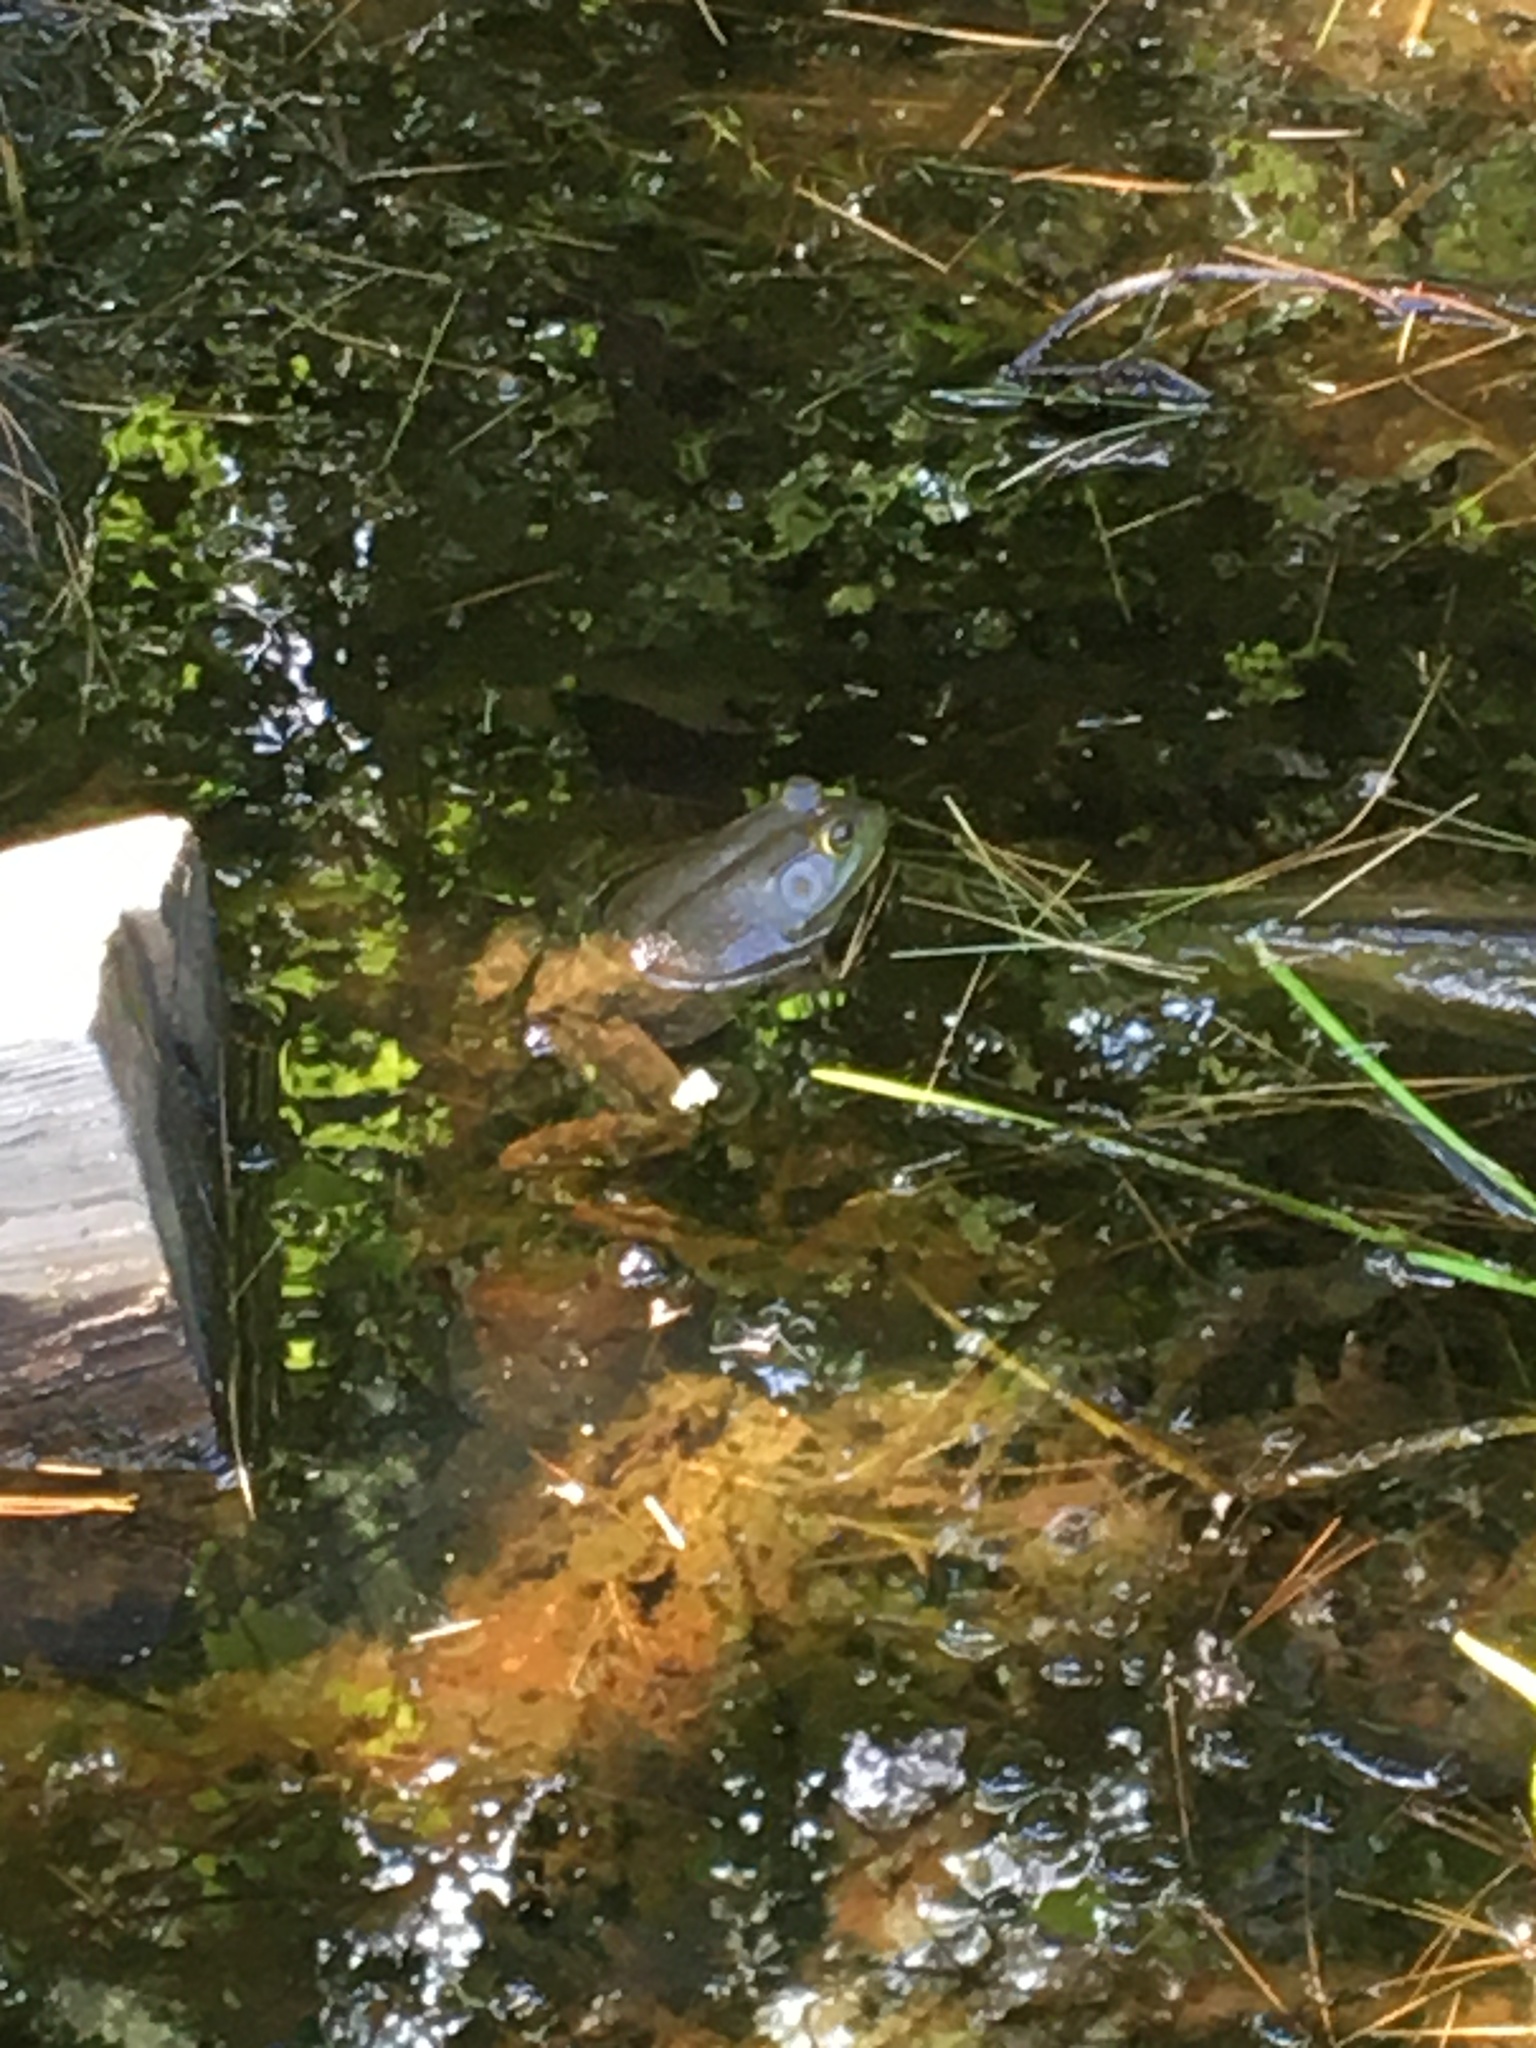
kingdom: Animalia
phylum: Chordata
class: Amphibia
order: Anura
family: Ranidae
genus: Lithobates
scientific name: Lithobates catesbeianus
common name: American bullfrog
